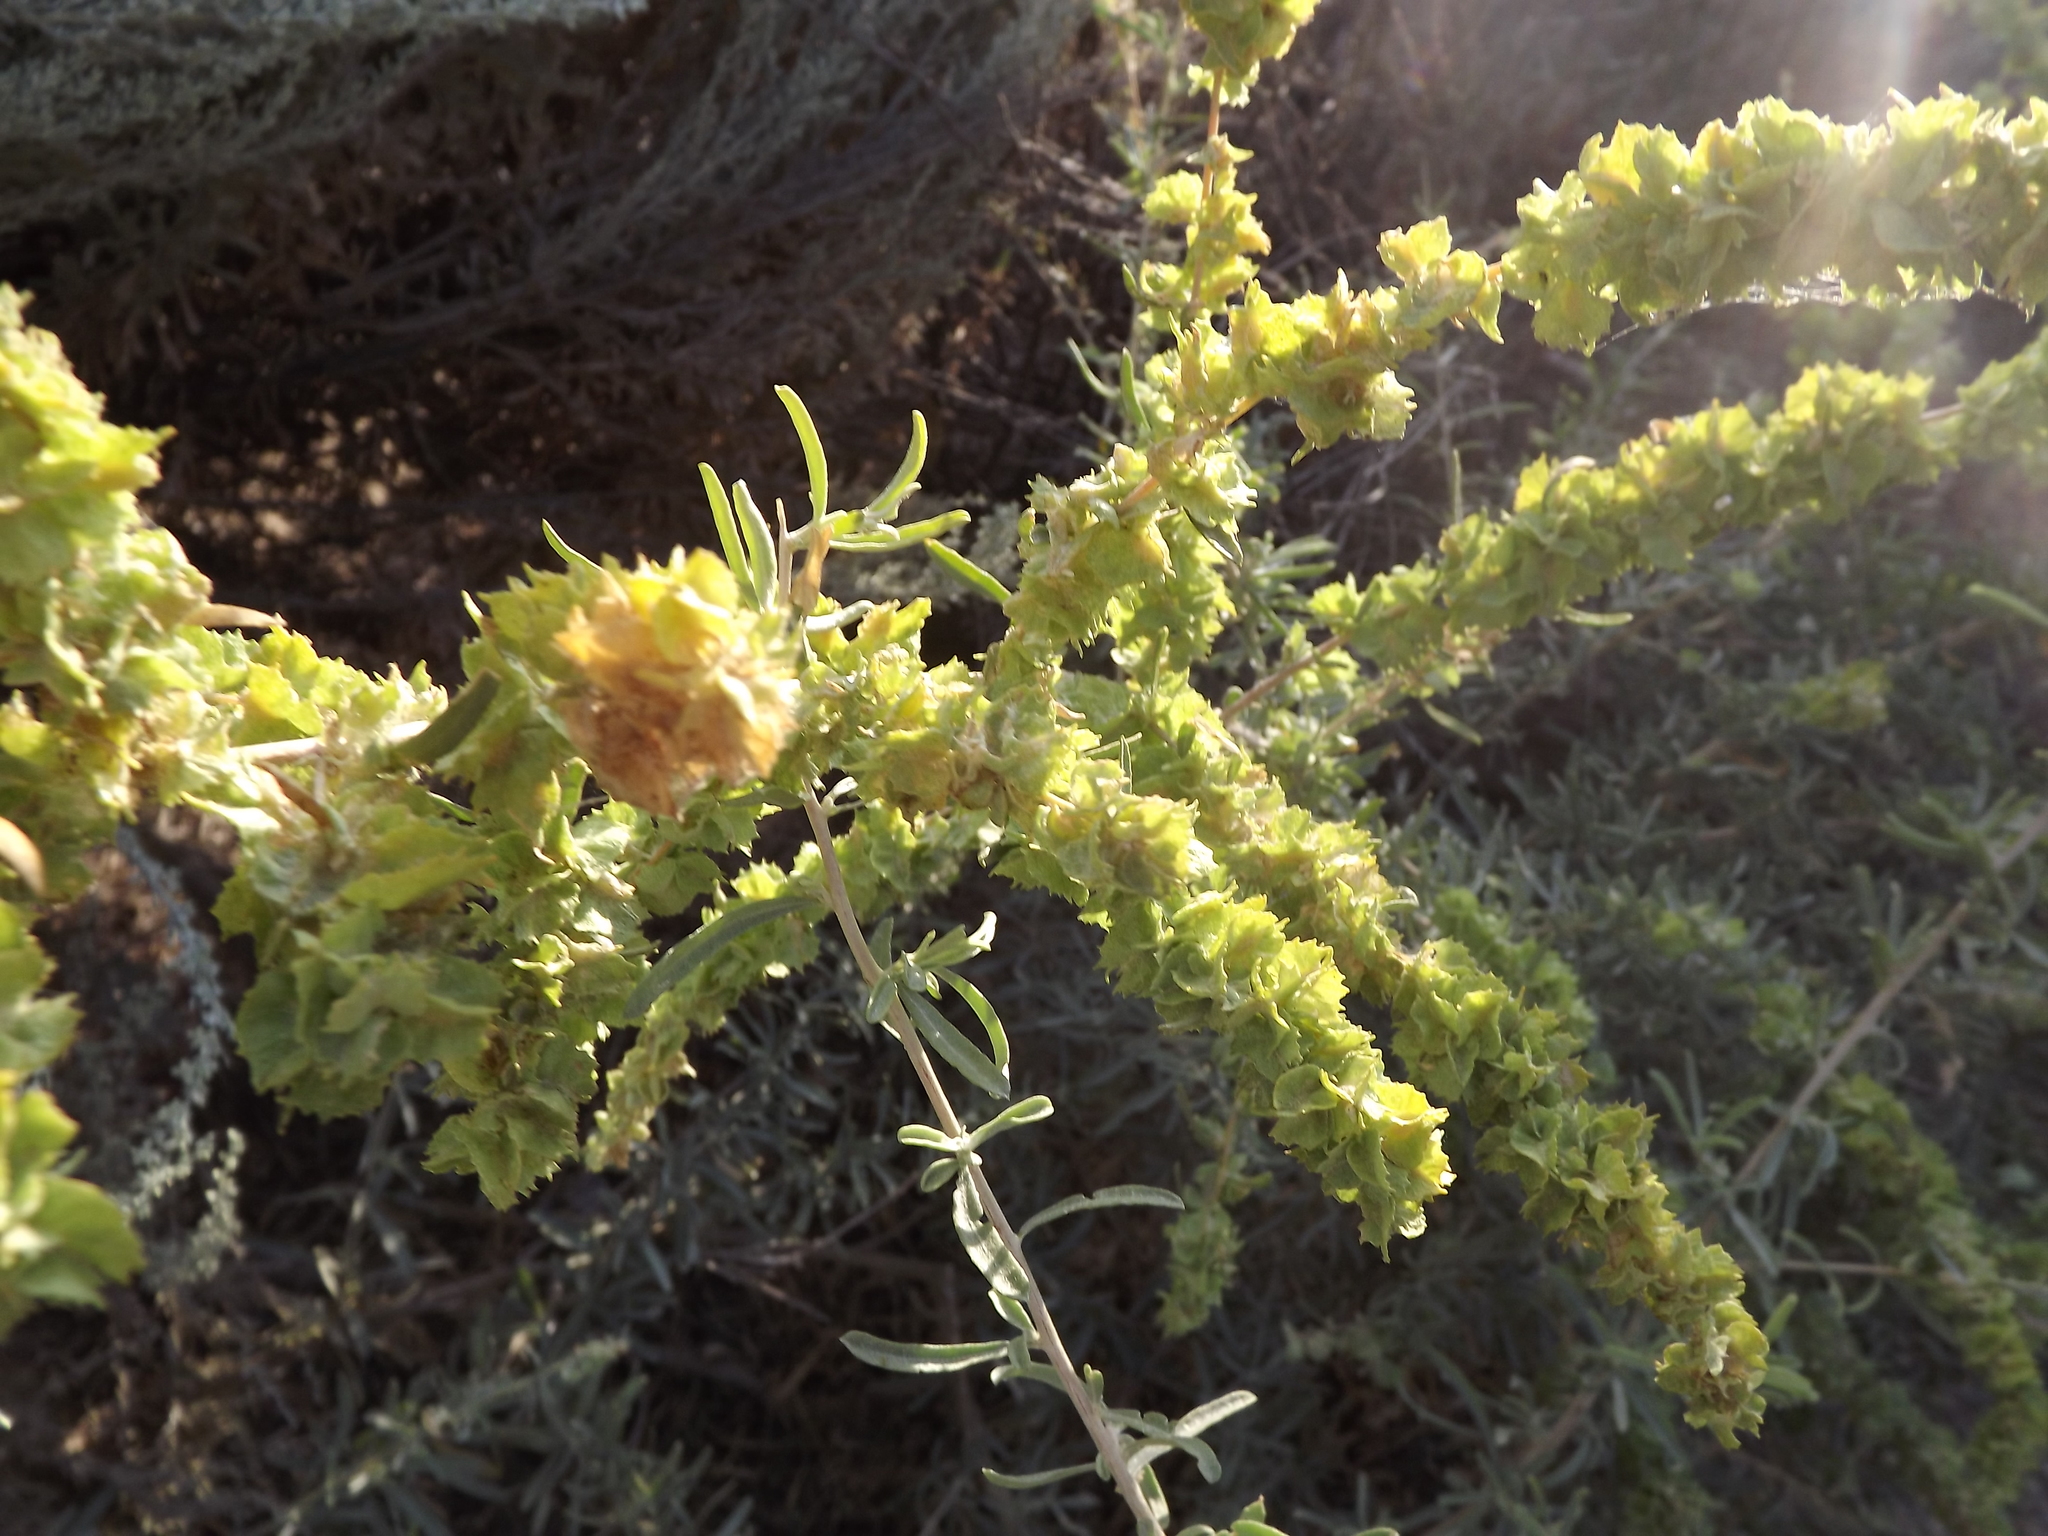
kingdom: Plantae
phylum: Tracheophyta
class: Magnoliopsida
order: Caryophyllales
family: Amaranthaceae
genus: Atriplex
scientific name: Atriplex canescens
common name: Four-wing saltbush
